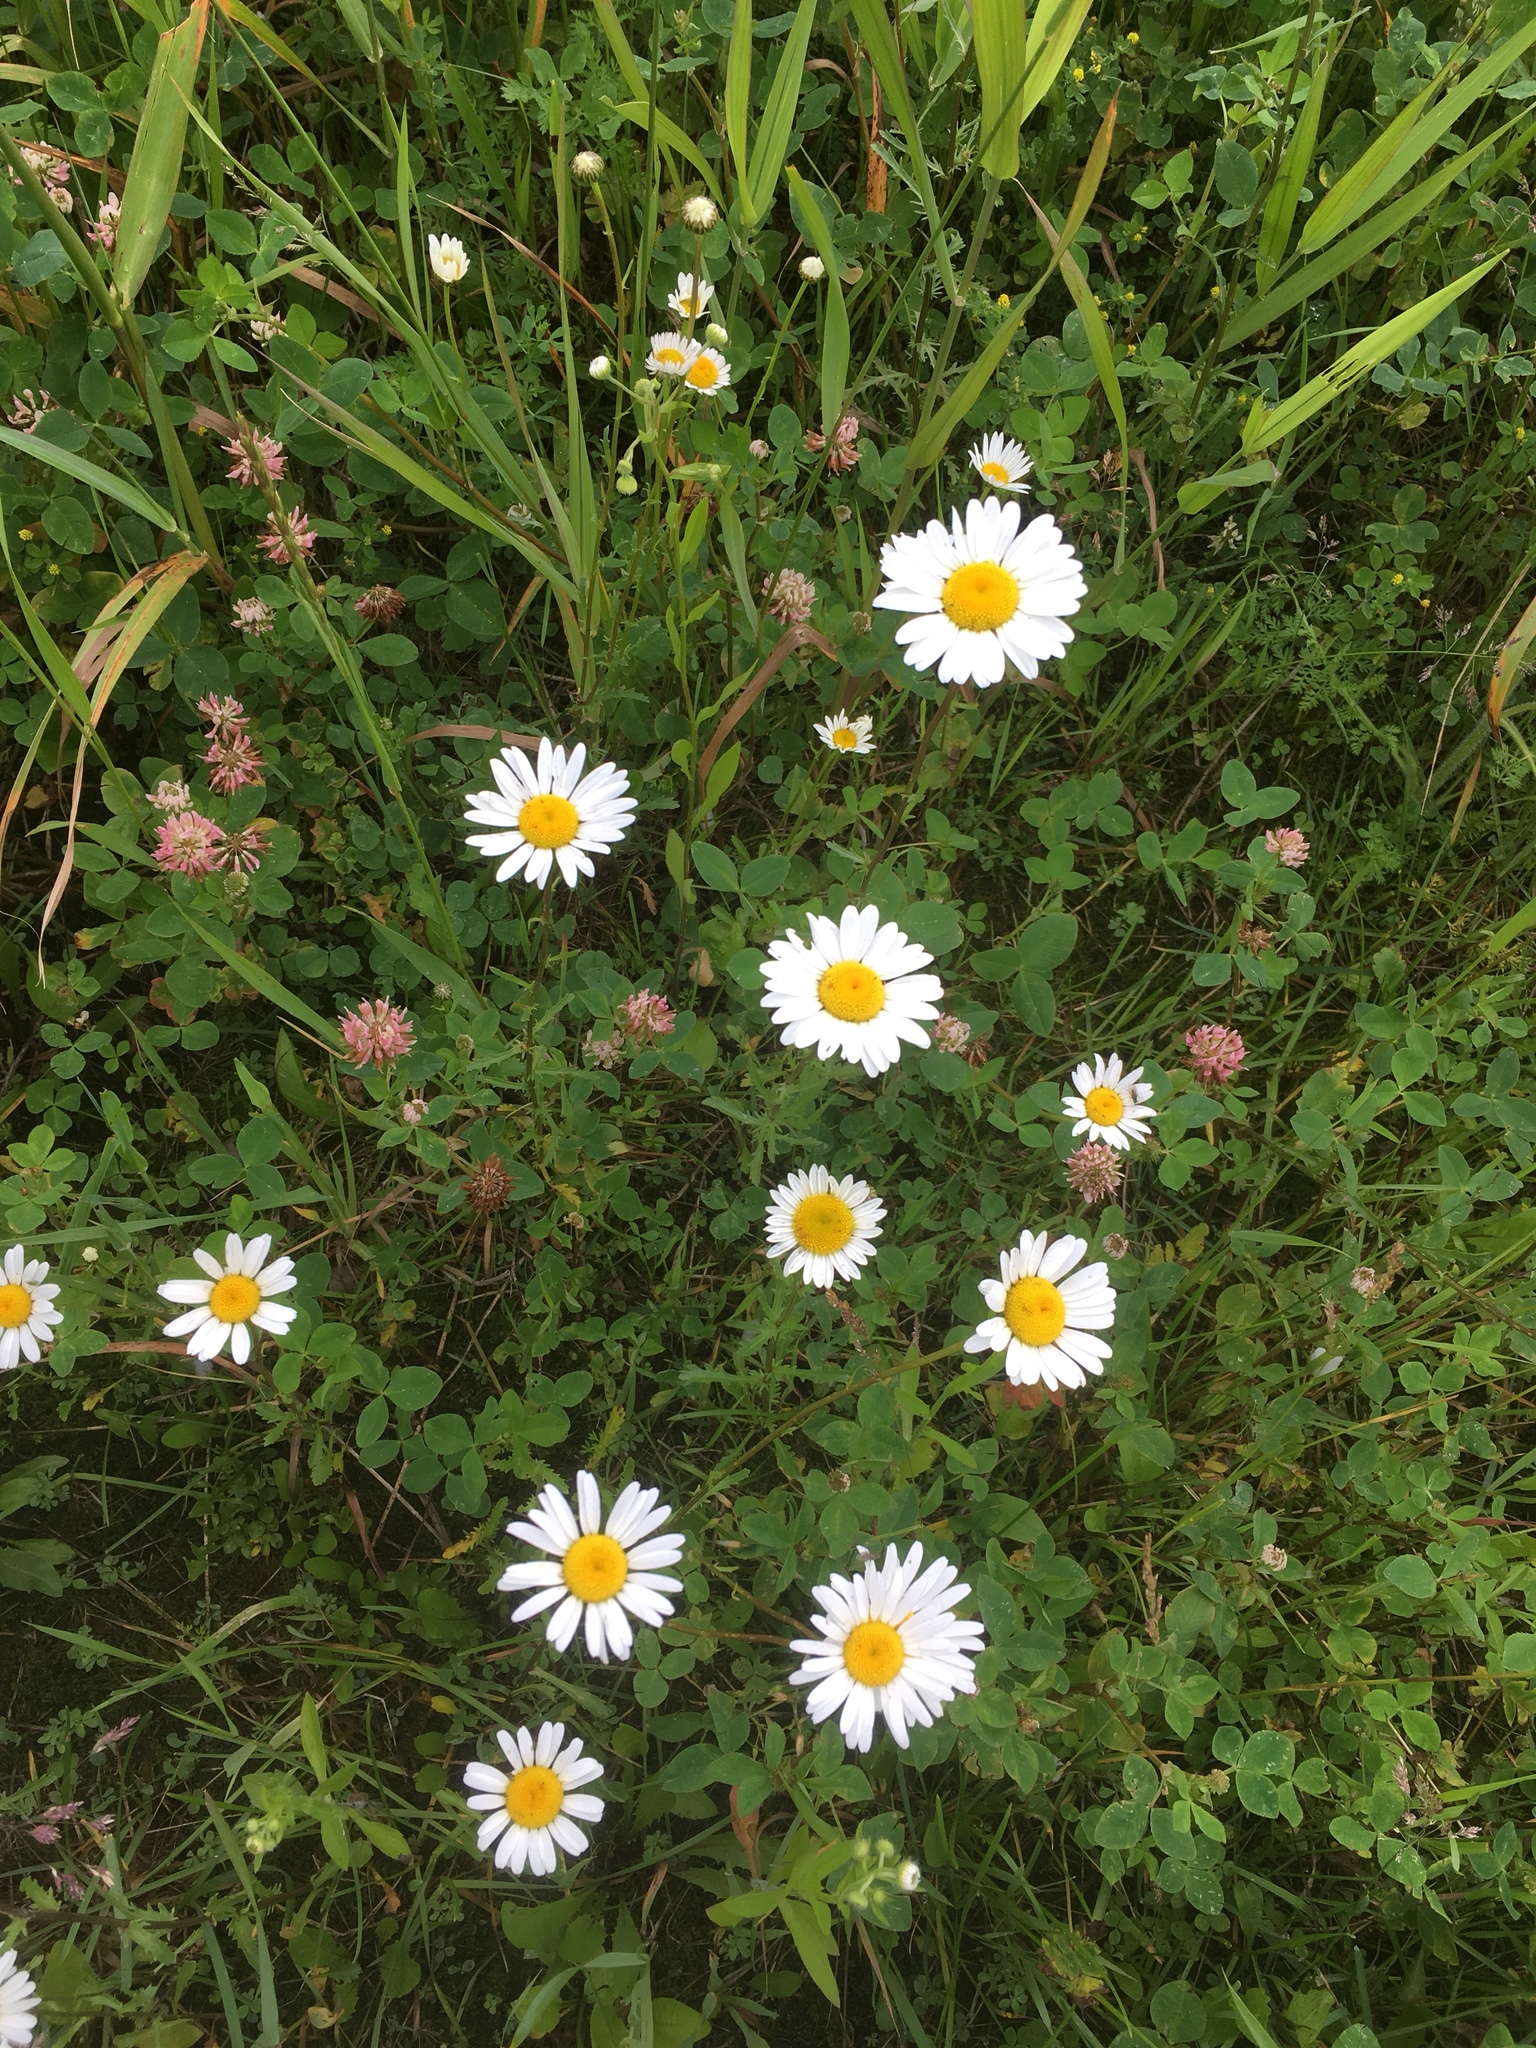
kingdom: Plantae
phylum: Tracheophyta
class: Magnoliopsida
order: Asterales
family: Asteraceae
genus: Leucanthemum
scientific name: Leucanthemum vulgare
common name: Oxeye daisy
